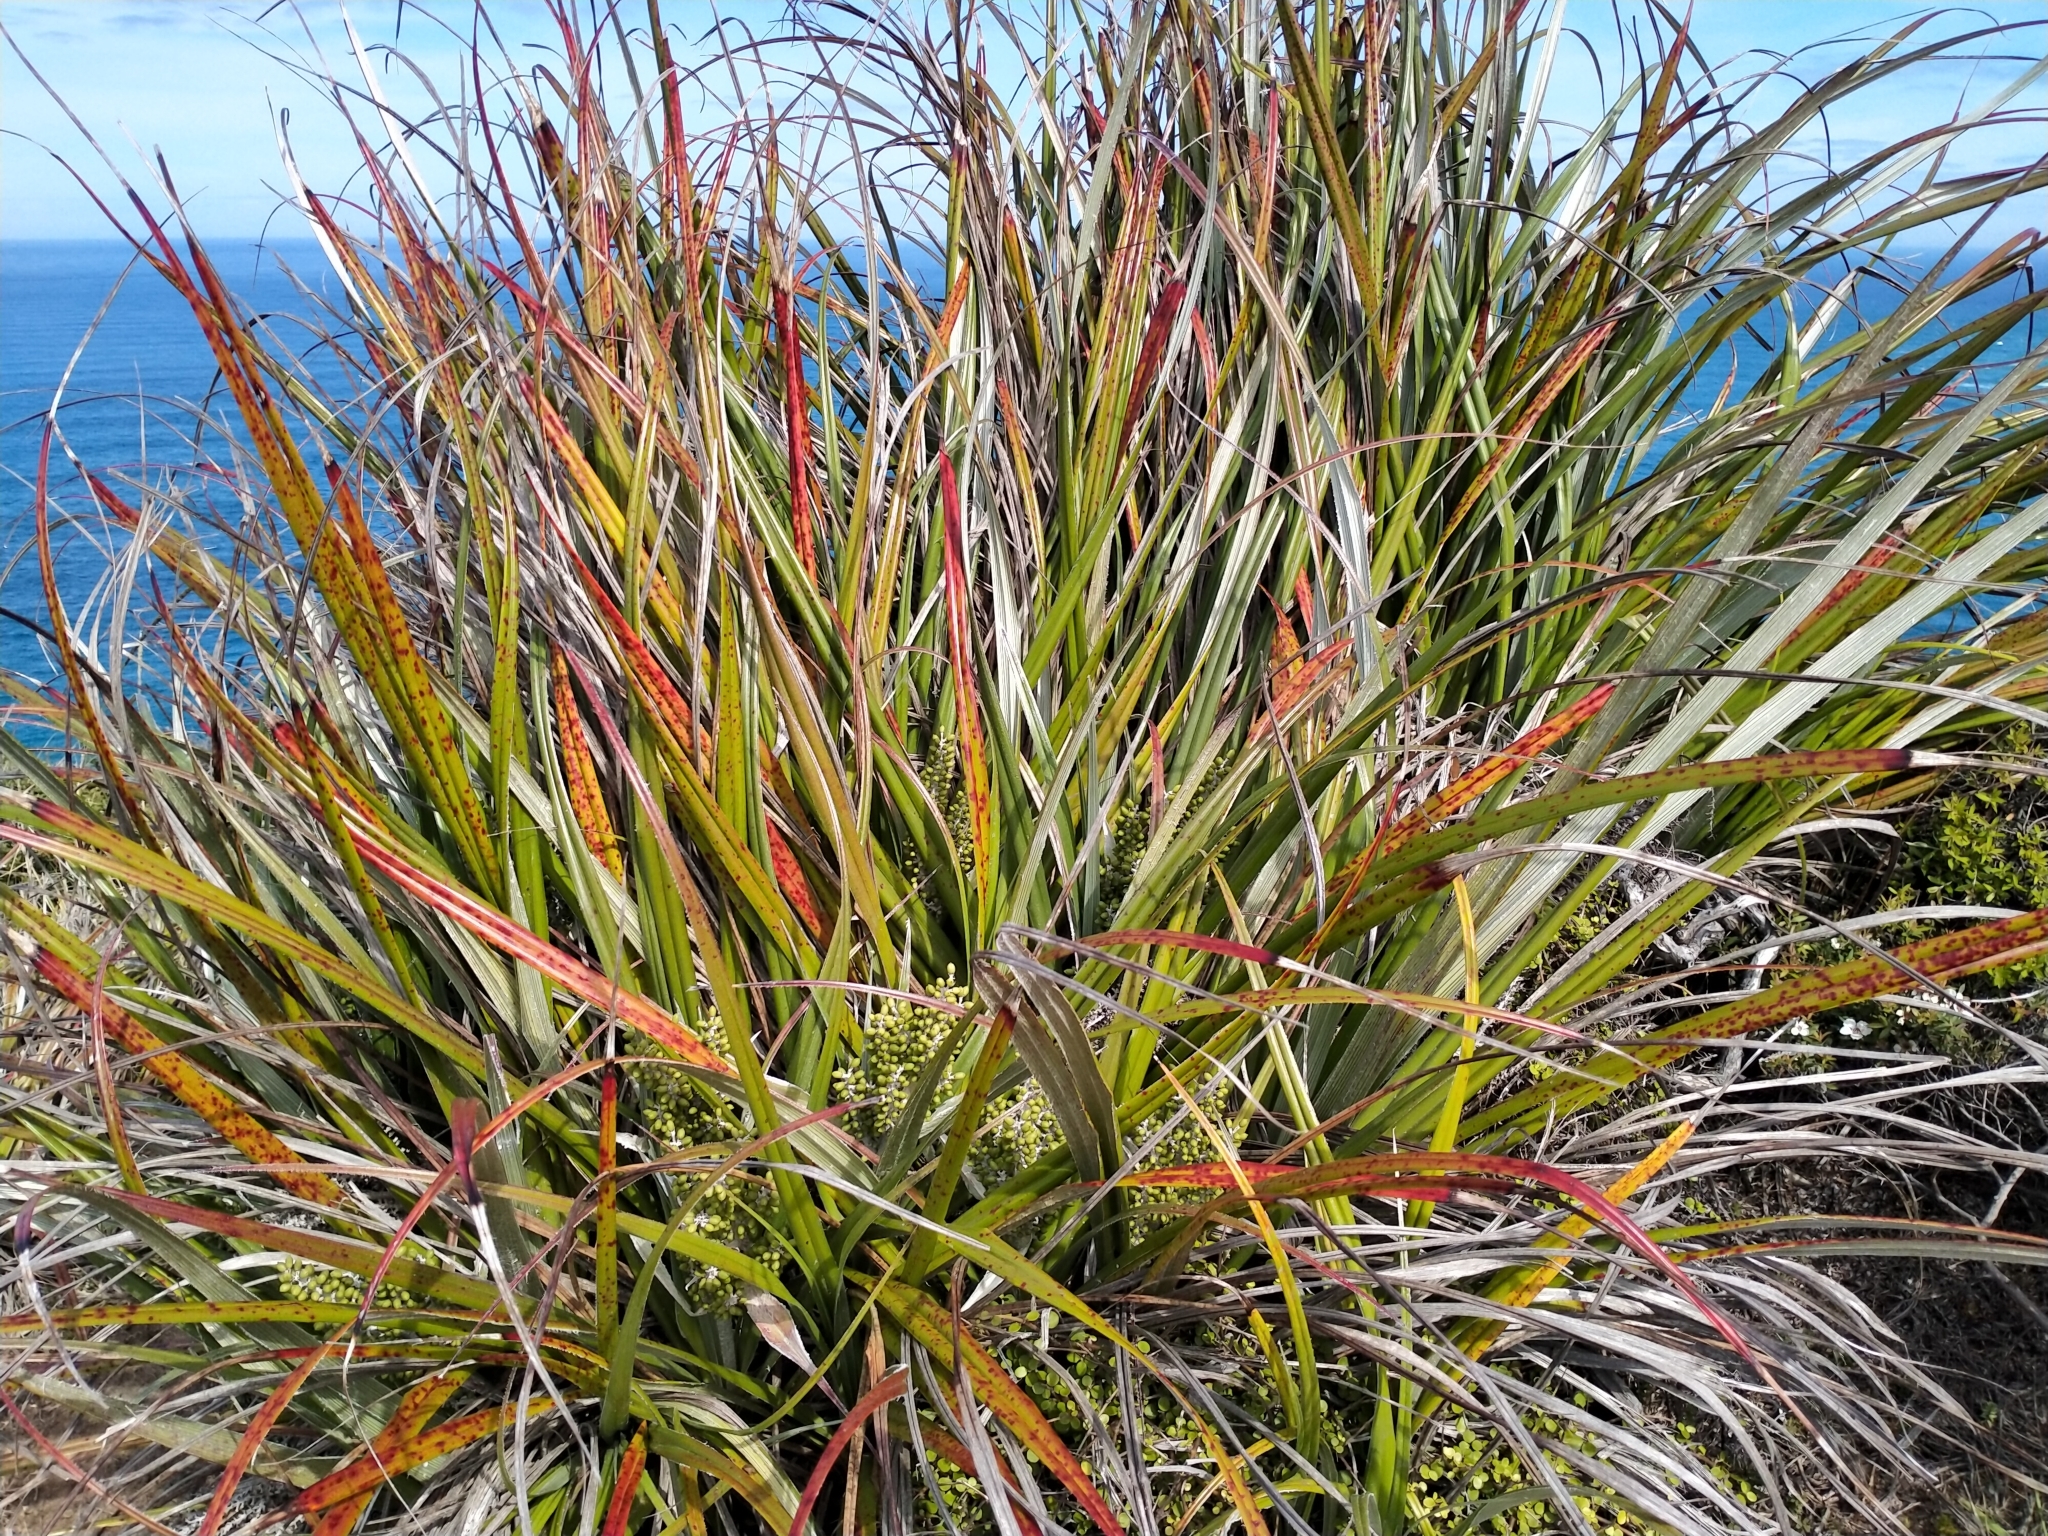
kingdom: Plantae
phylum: Tracheophyta
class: Liliopsida
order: Asparagales
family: Asteliaceae
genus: Astelia
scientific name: Astelia banksii
